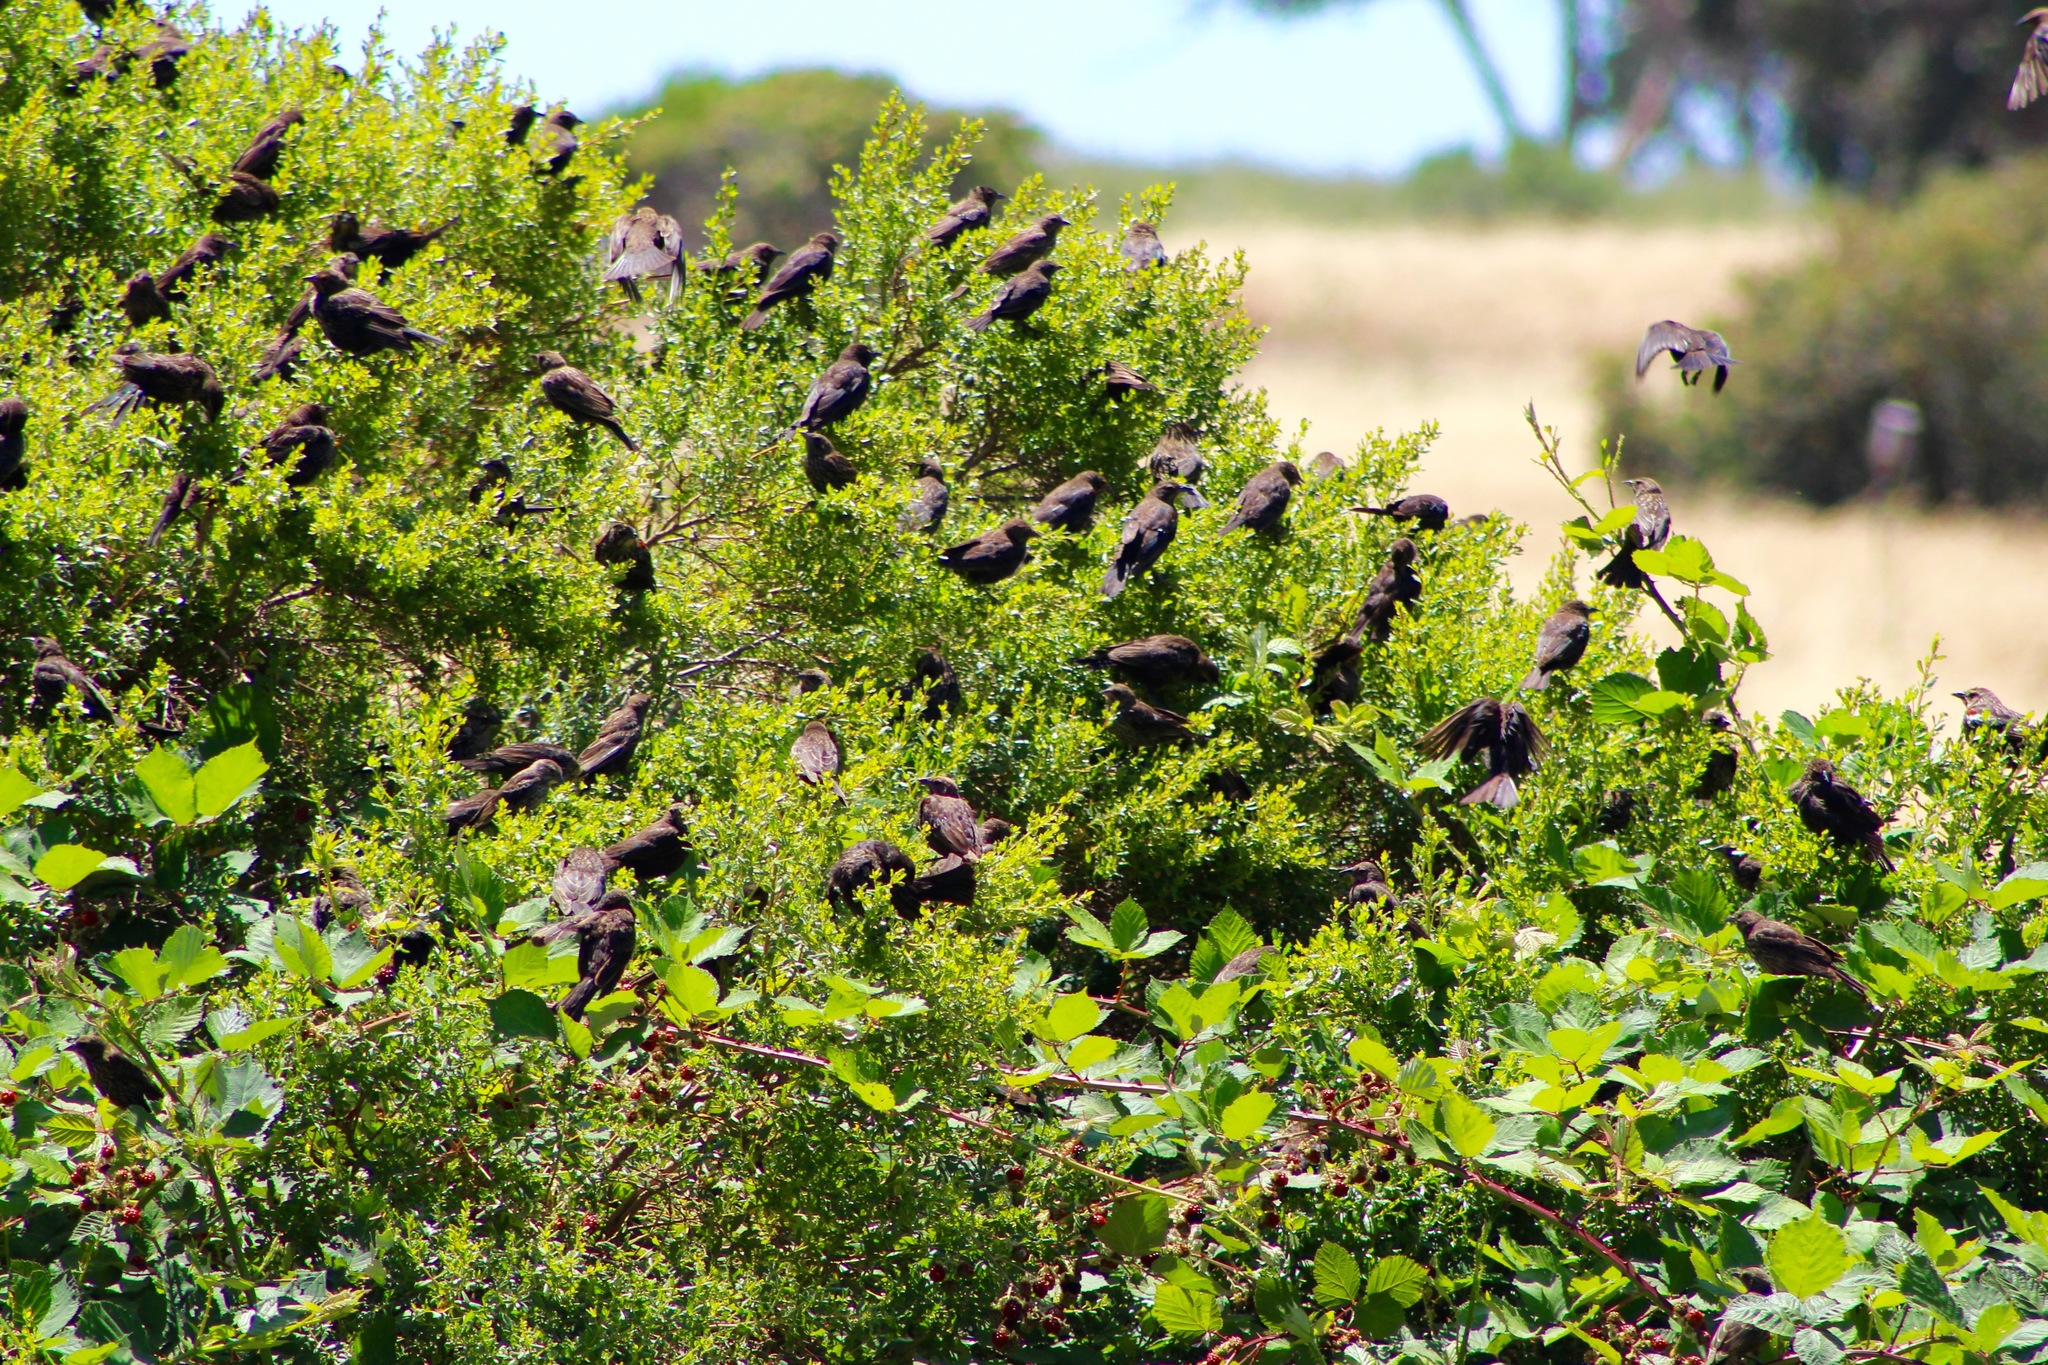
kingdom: Animalia
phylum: Chordata
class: Aves
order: Passeriformes
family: Icteridae
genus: Agelaius
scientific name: Agelaius phoeniceus
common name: Red-winged blackbird
